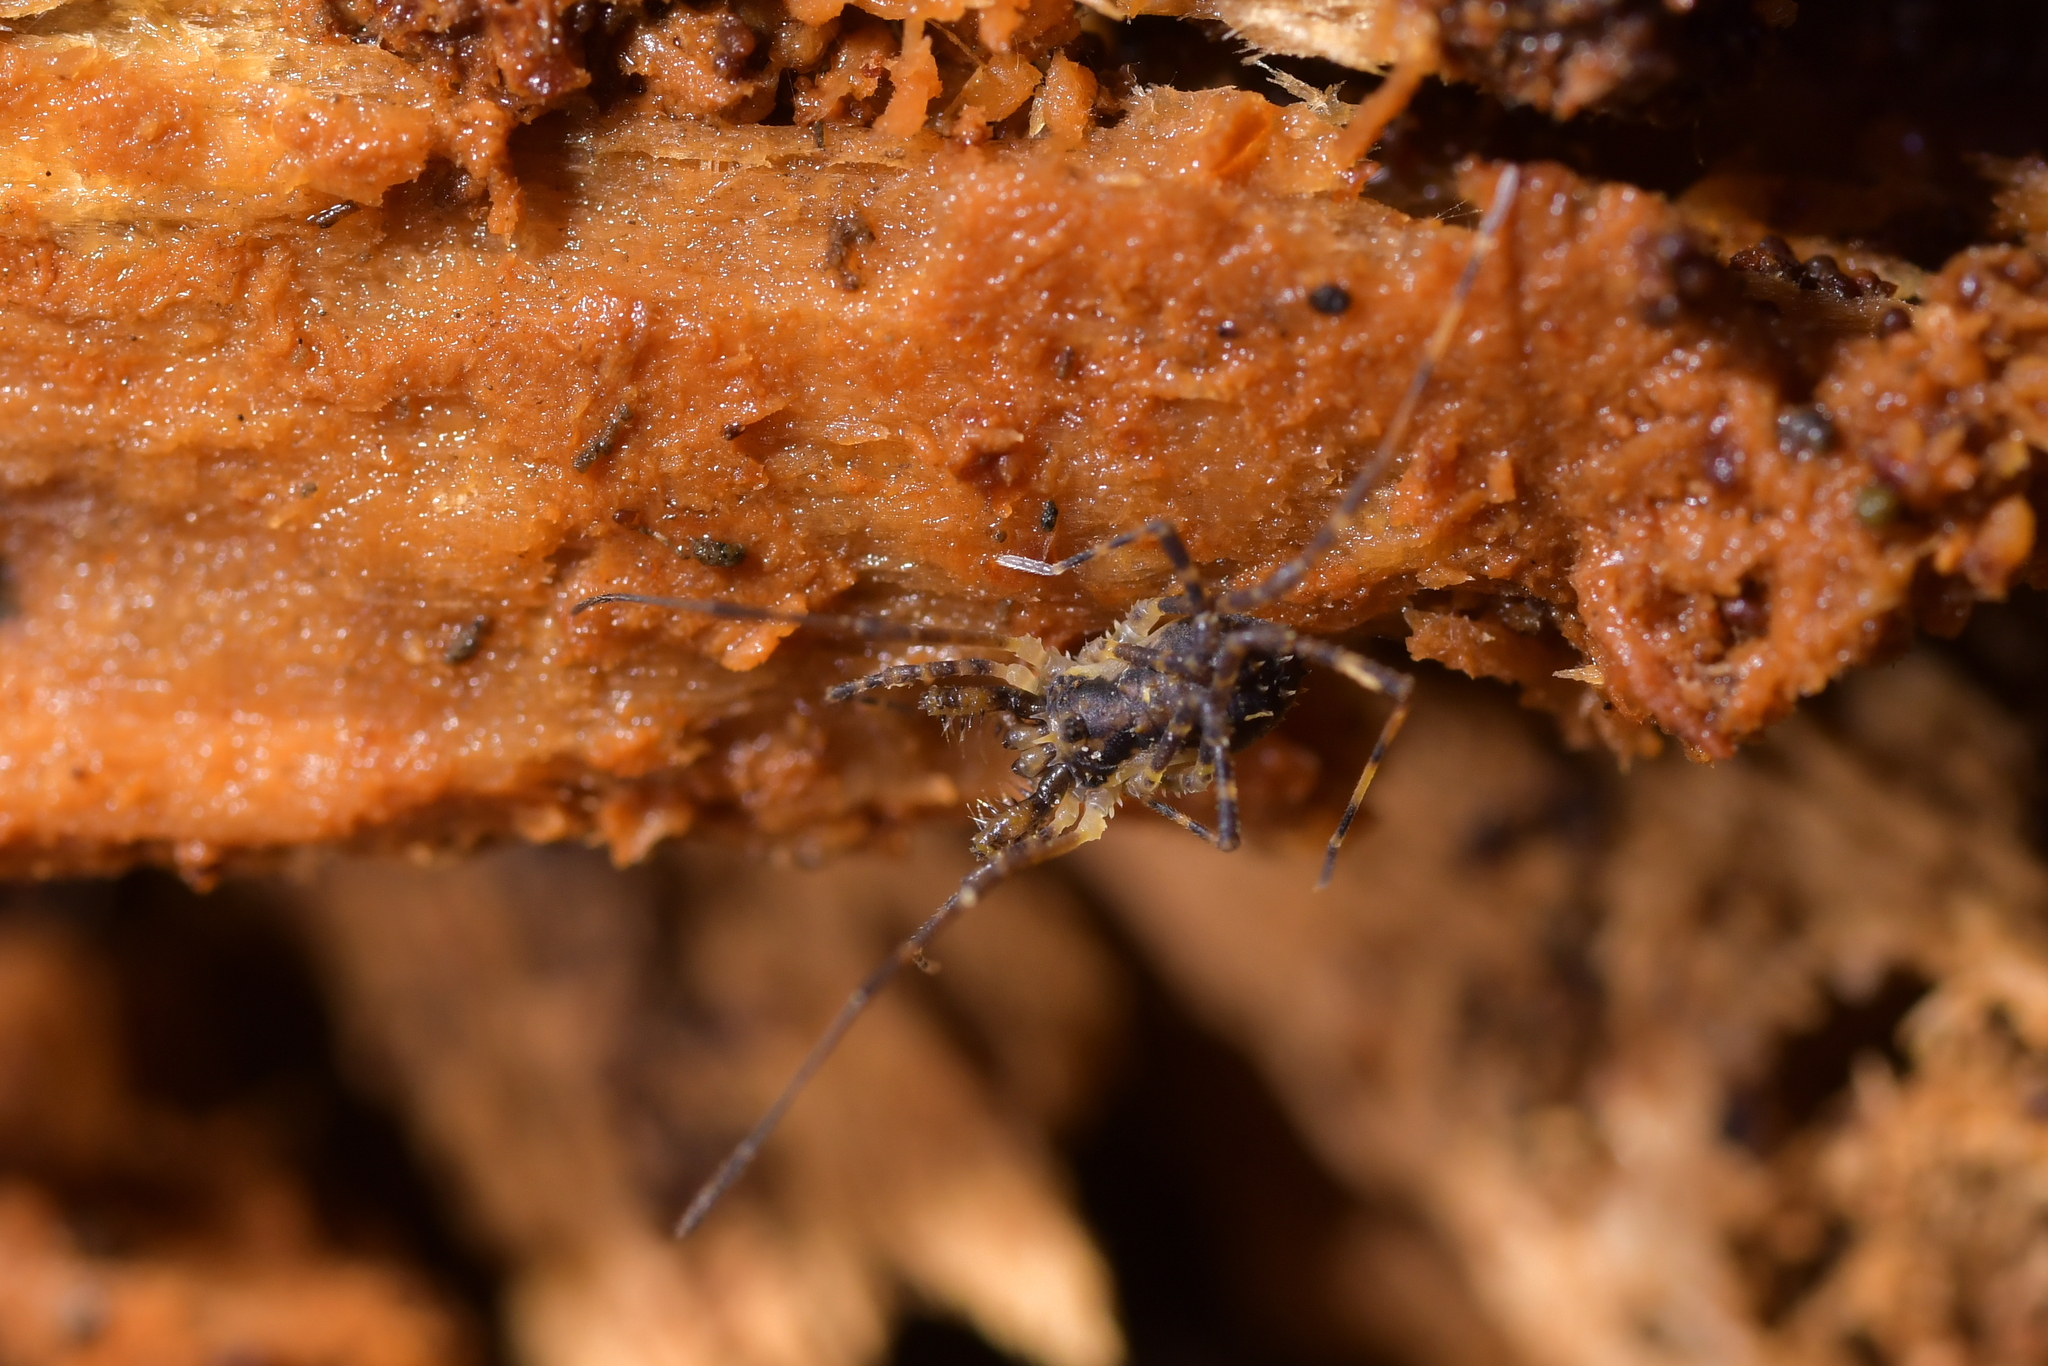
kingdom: Animalia
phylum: Arthropoda
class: Arachnida
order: Opiliones
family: Triaenonychidae
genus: Algidia
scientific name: Algidia chiltoni
